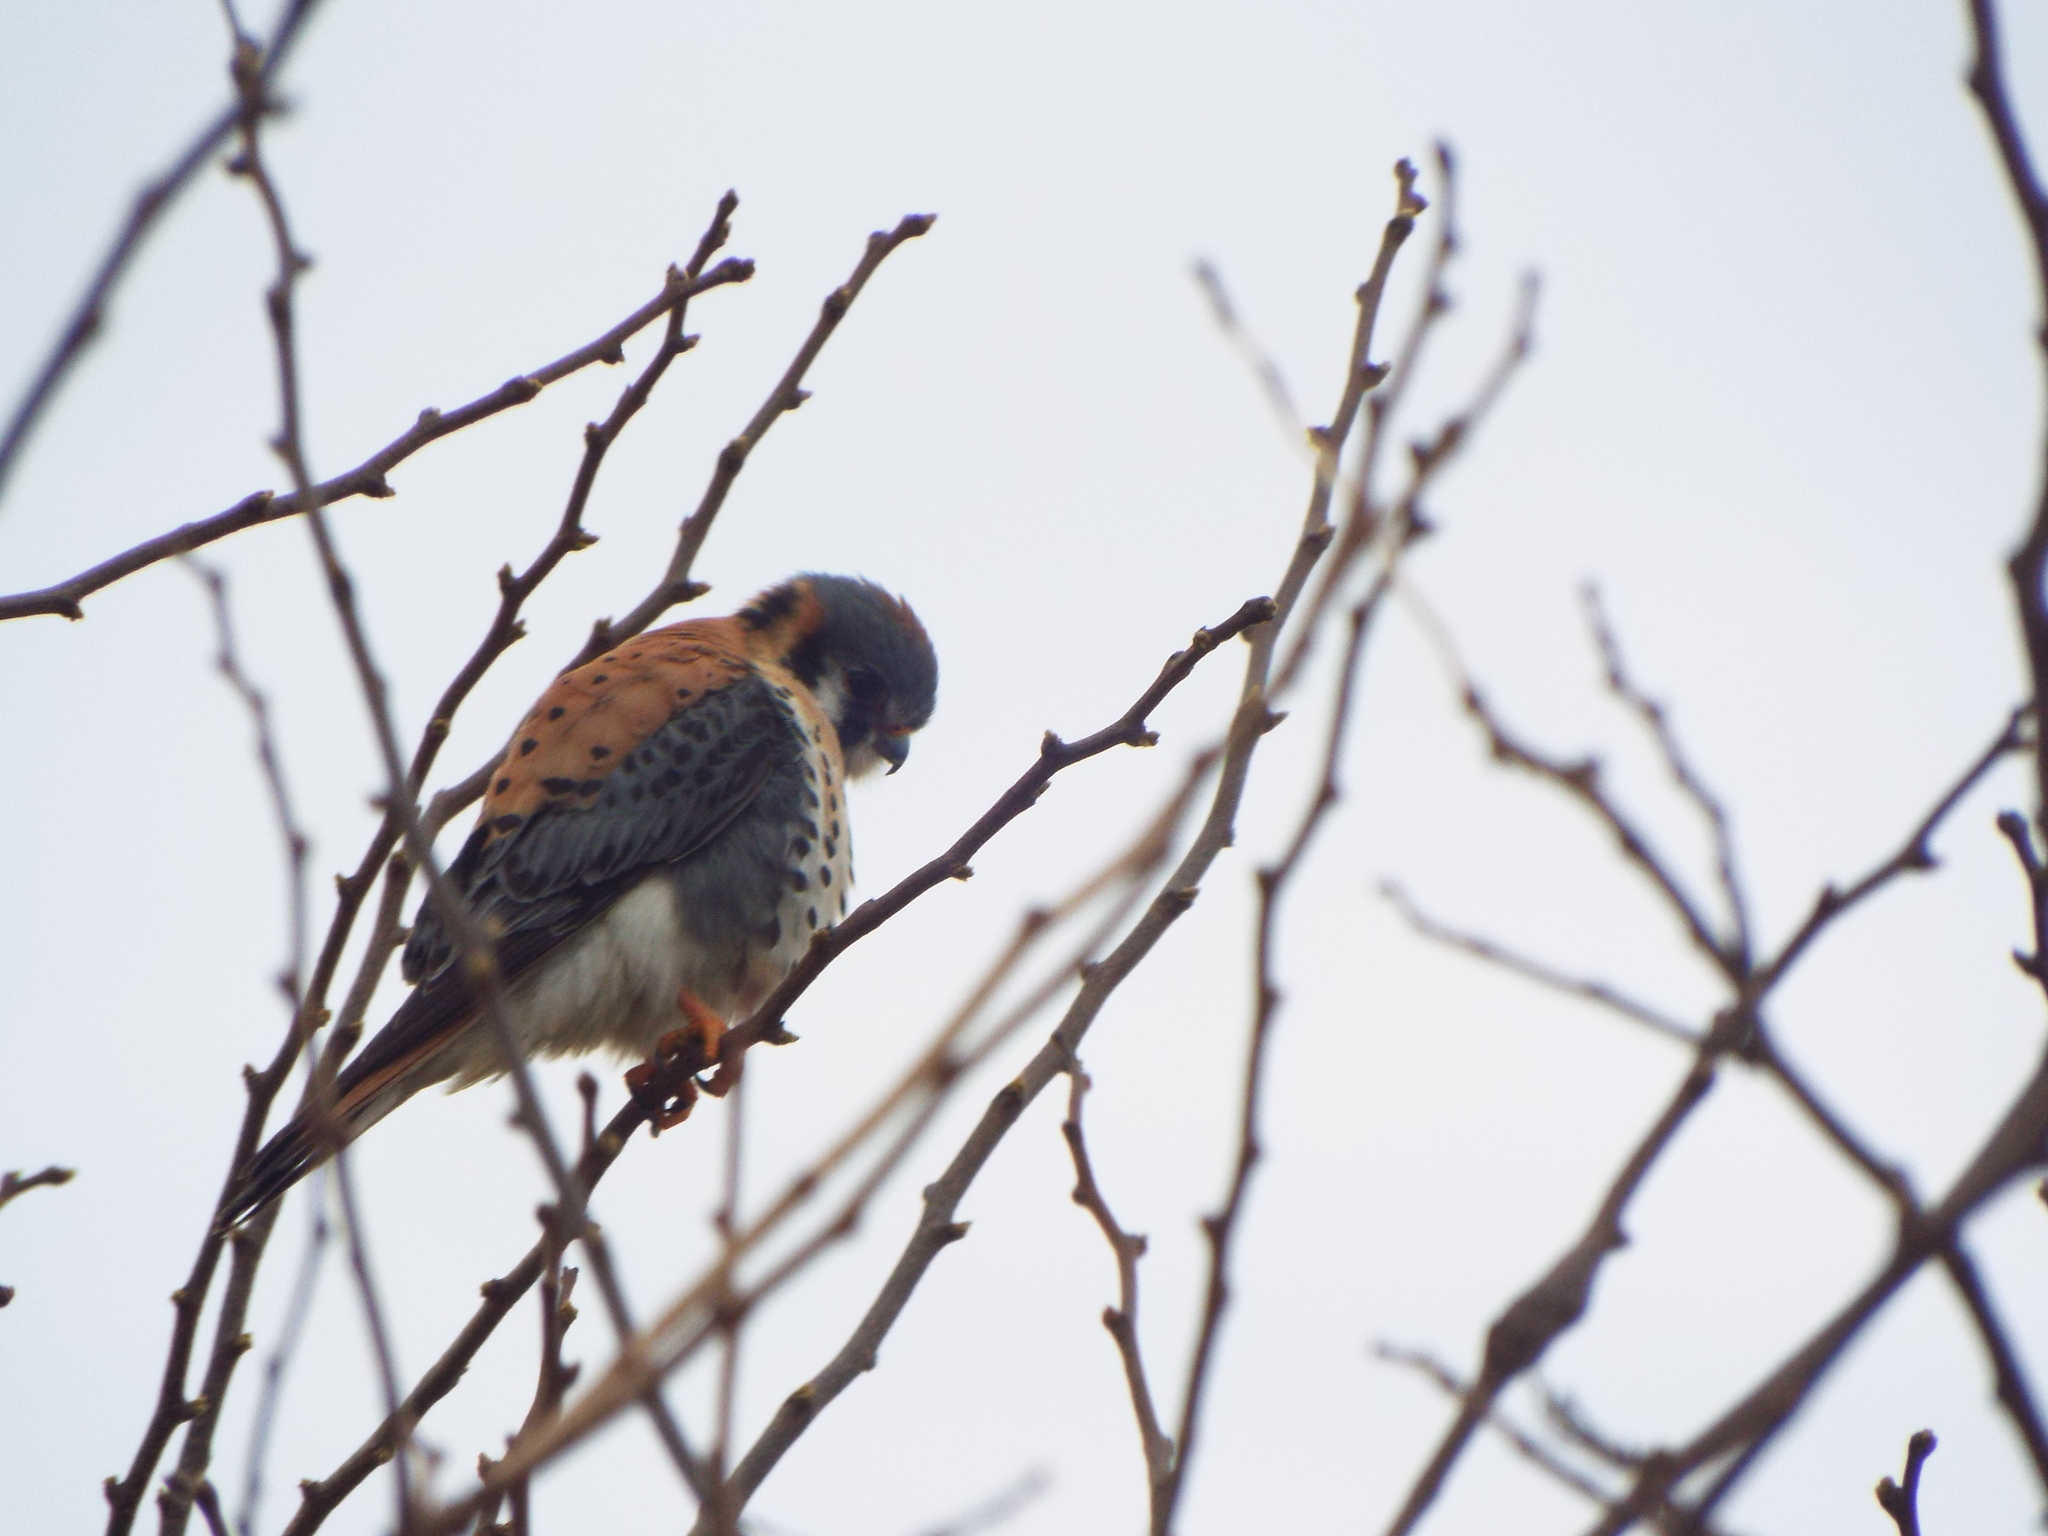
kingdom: Animalia
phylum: Chordata
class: Aves
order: Falconiformes
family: Falconidae
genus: Falco
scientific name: Falco sparverius
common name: American kestrel
